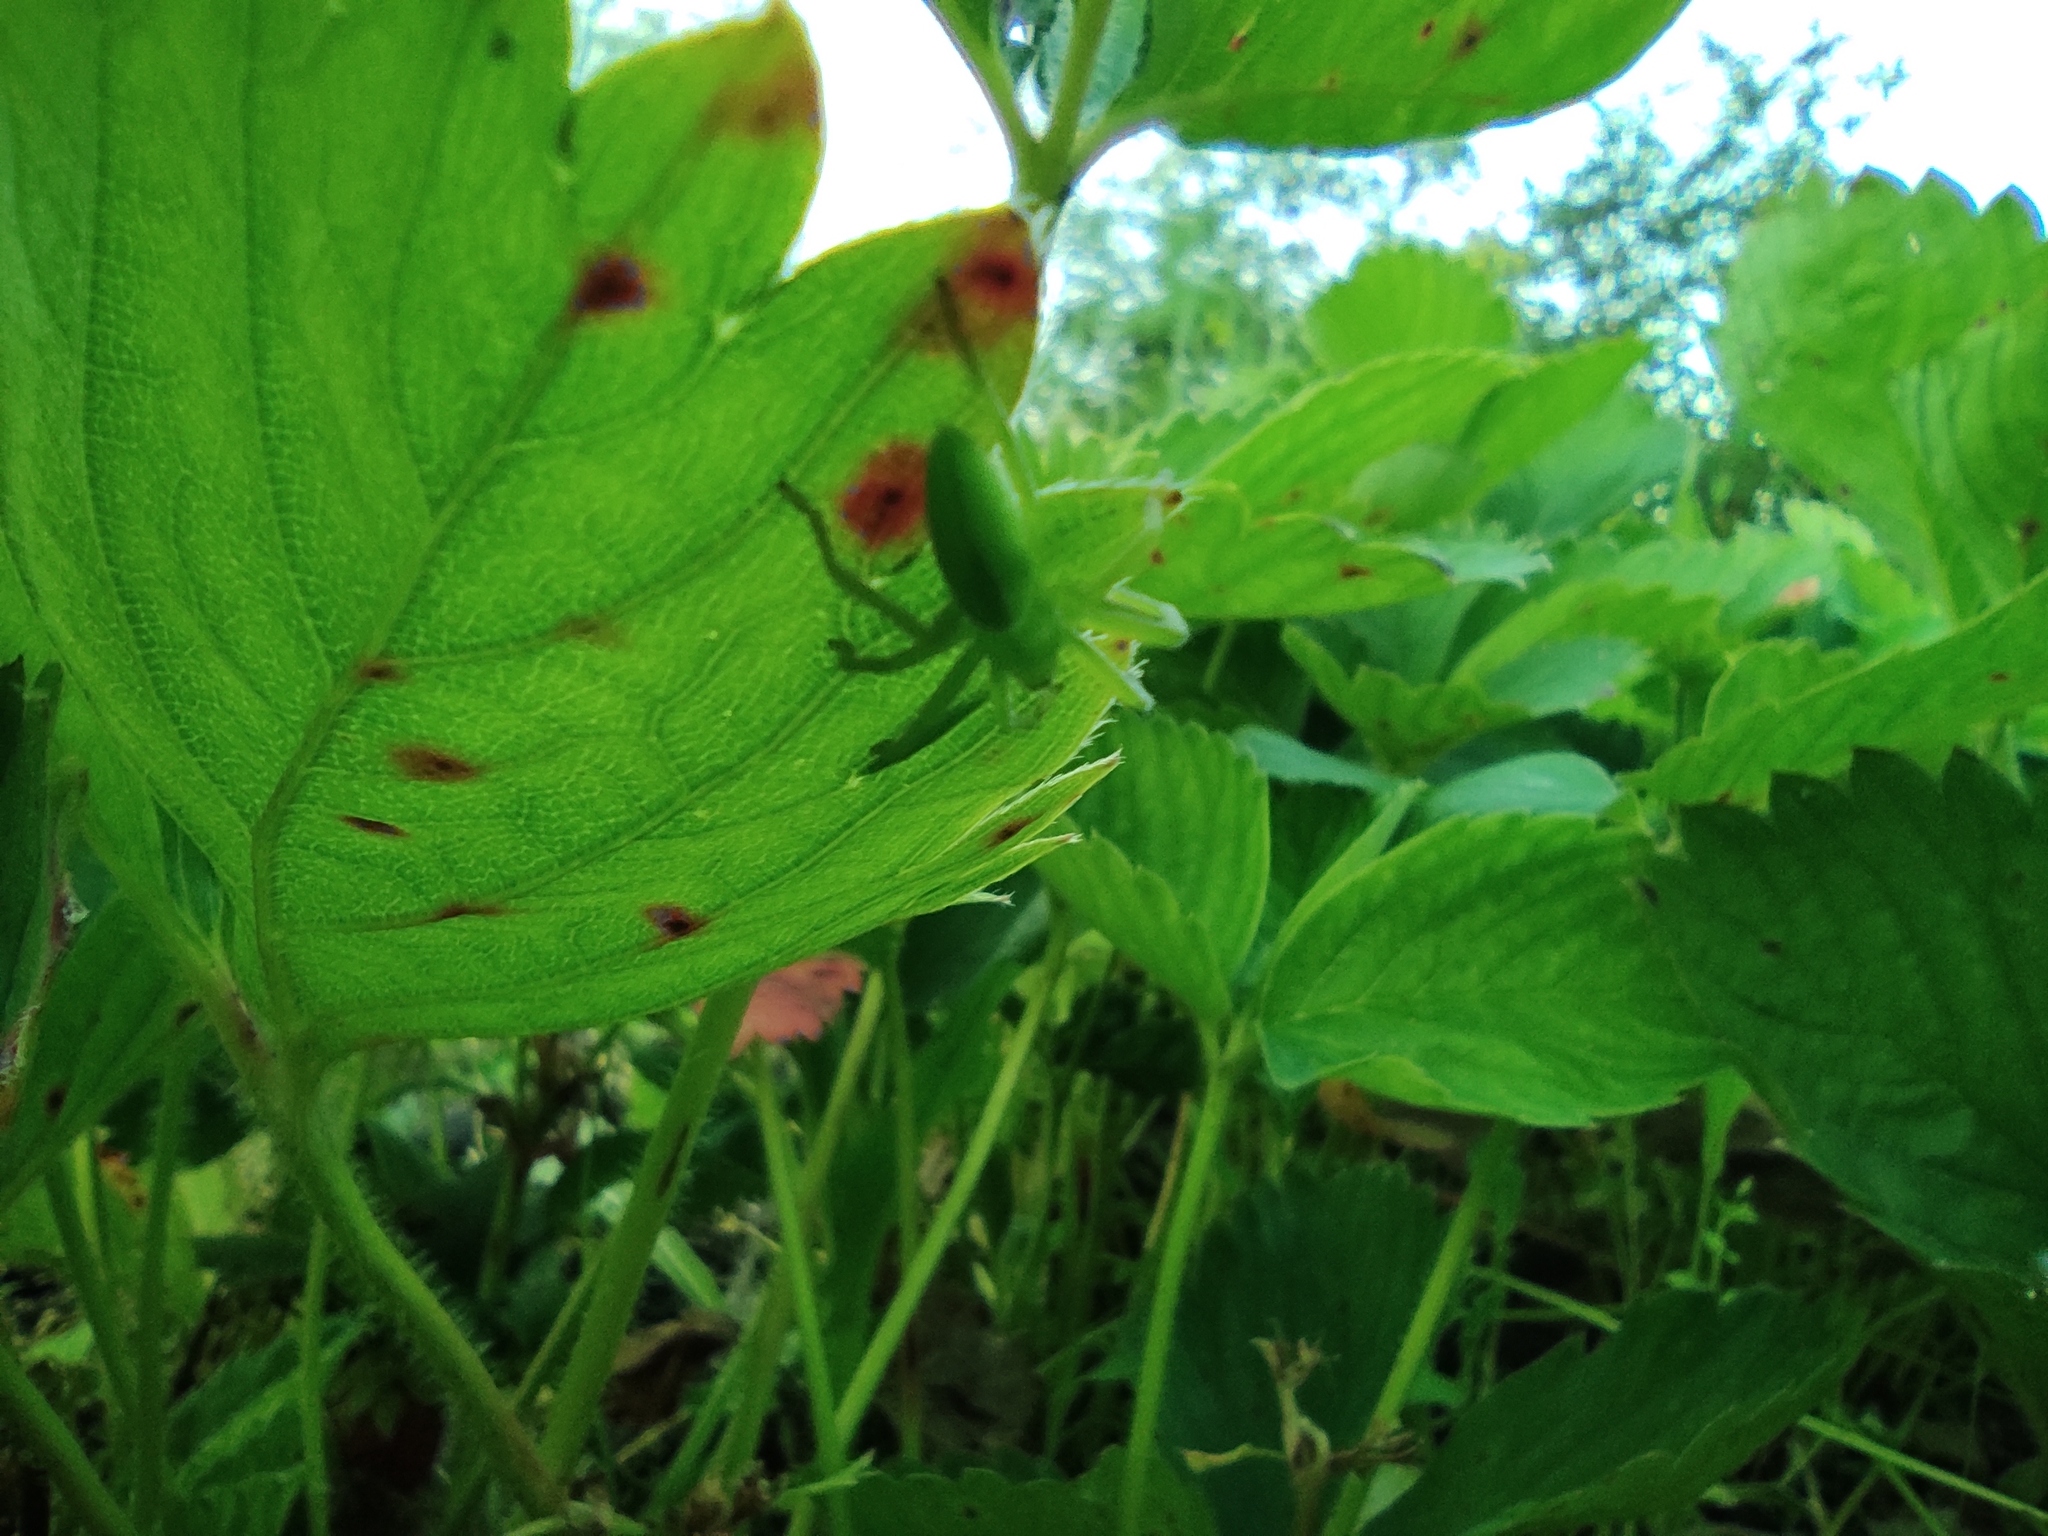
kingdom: Animalia
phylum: Arthropoda
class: Arachnida
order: Araneae
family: Sparassidae
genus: Micrommata
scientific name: Micrommata virescens
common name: Green spider
